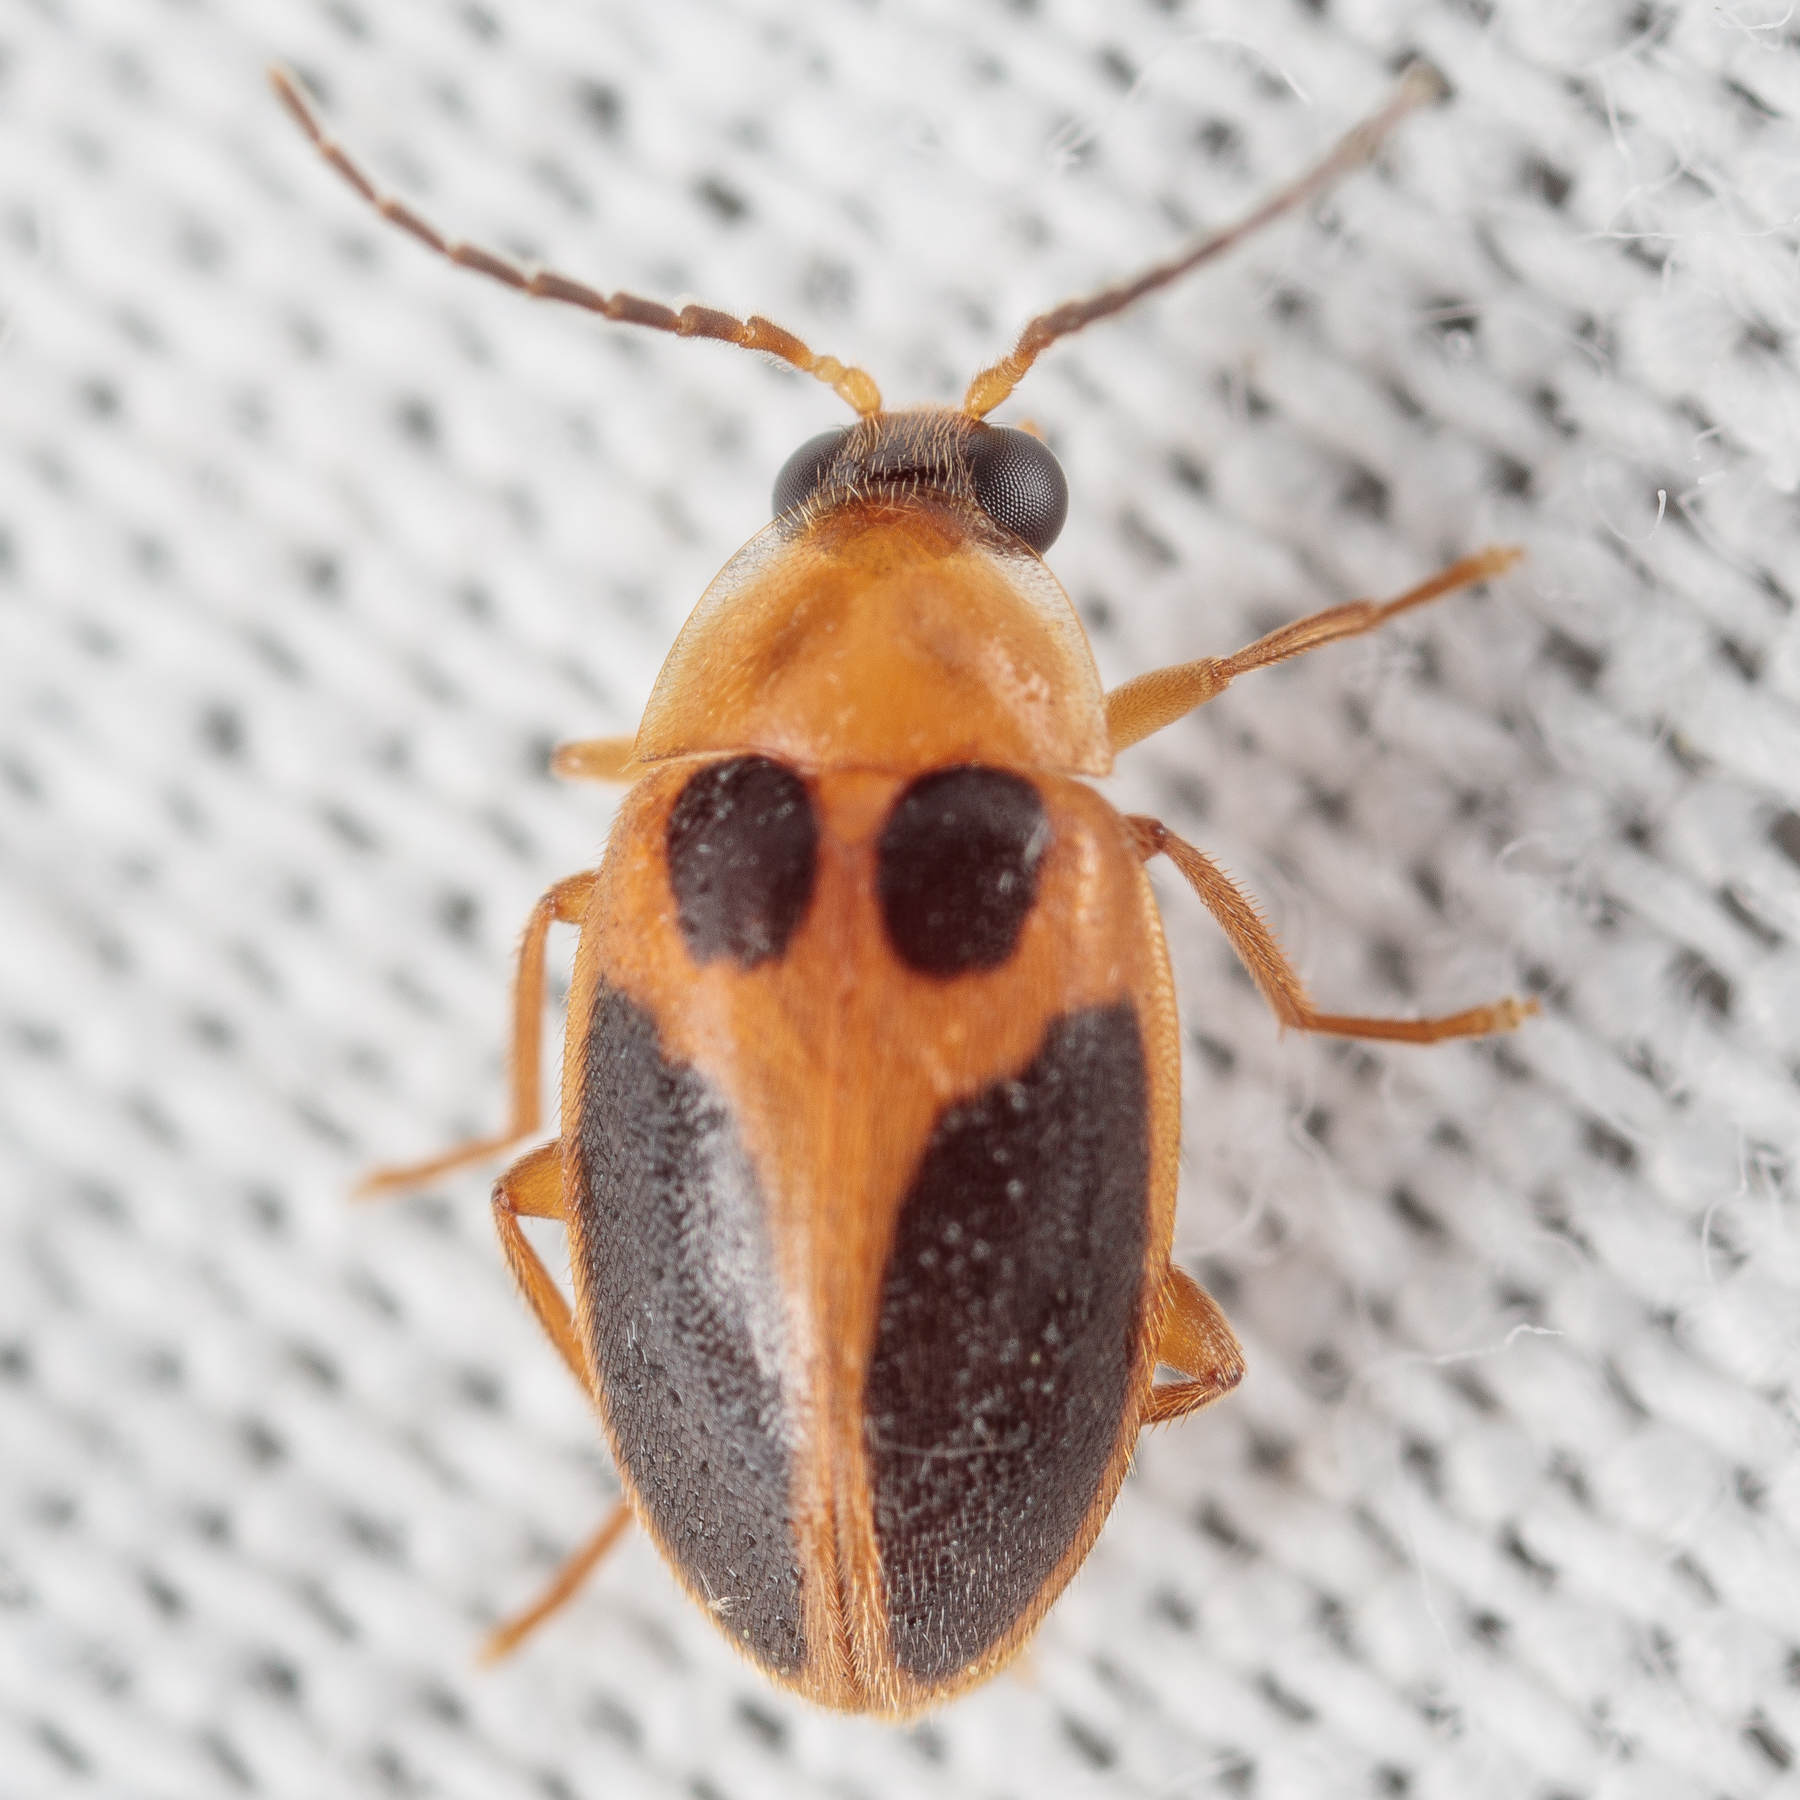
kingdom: Animalia
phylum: Arthropoda
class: Insecta
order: Coleoptera
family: Scirtidae
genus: Sacodes
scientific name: Sacodes pulchella
